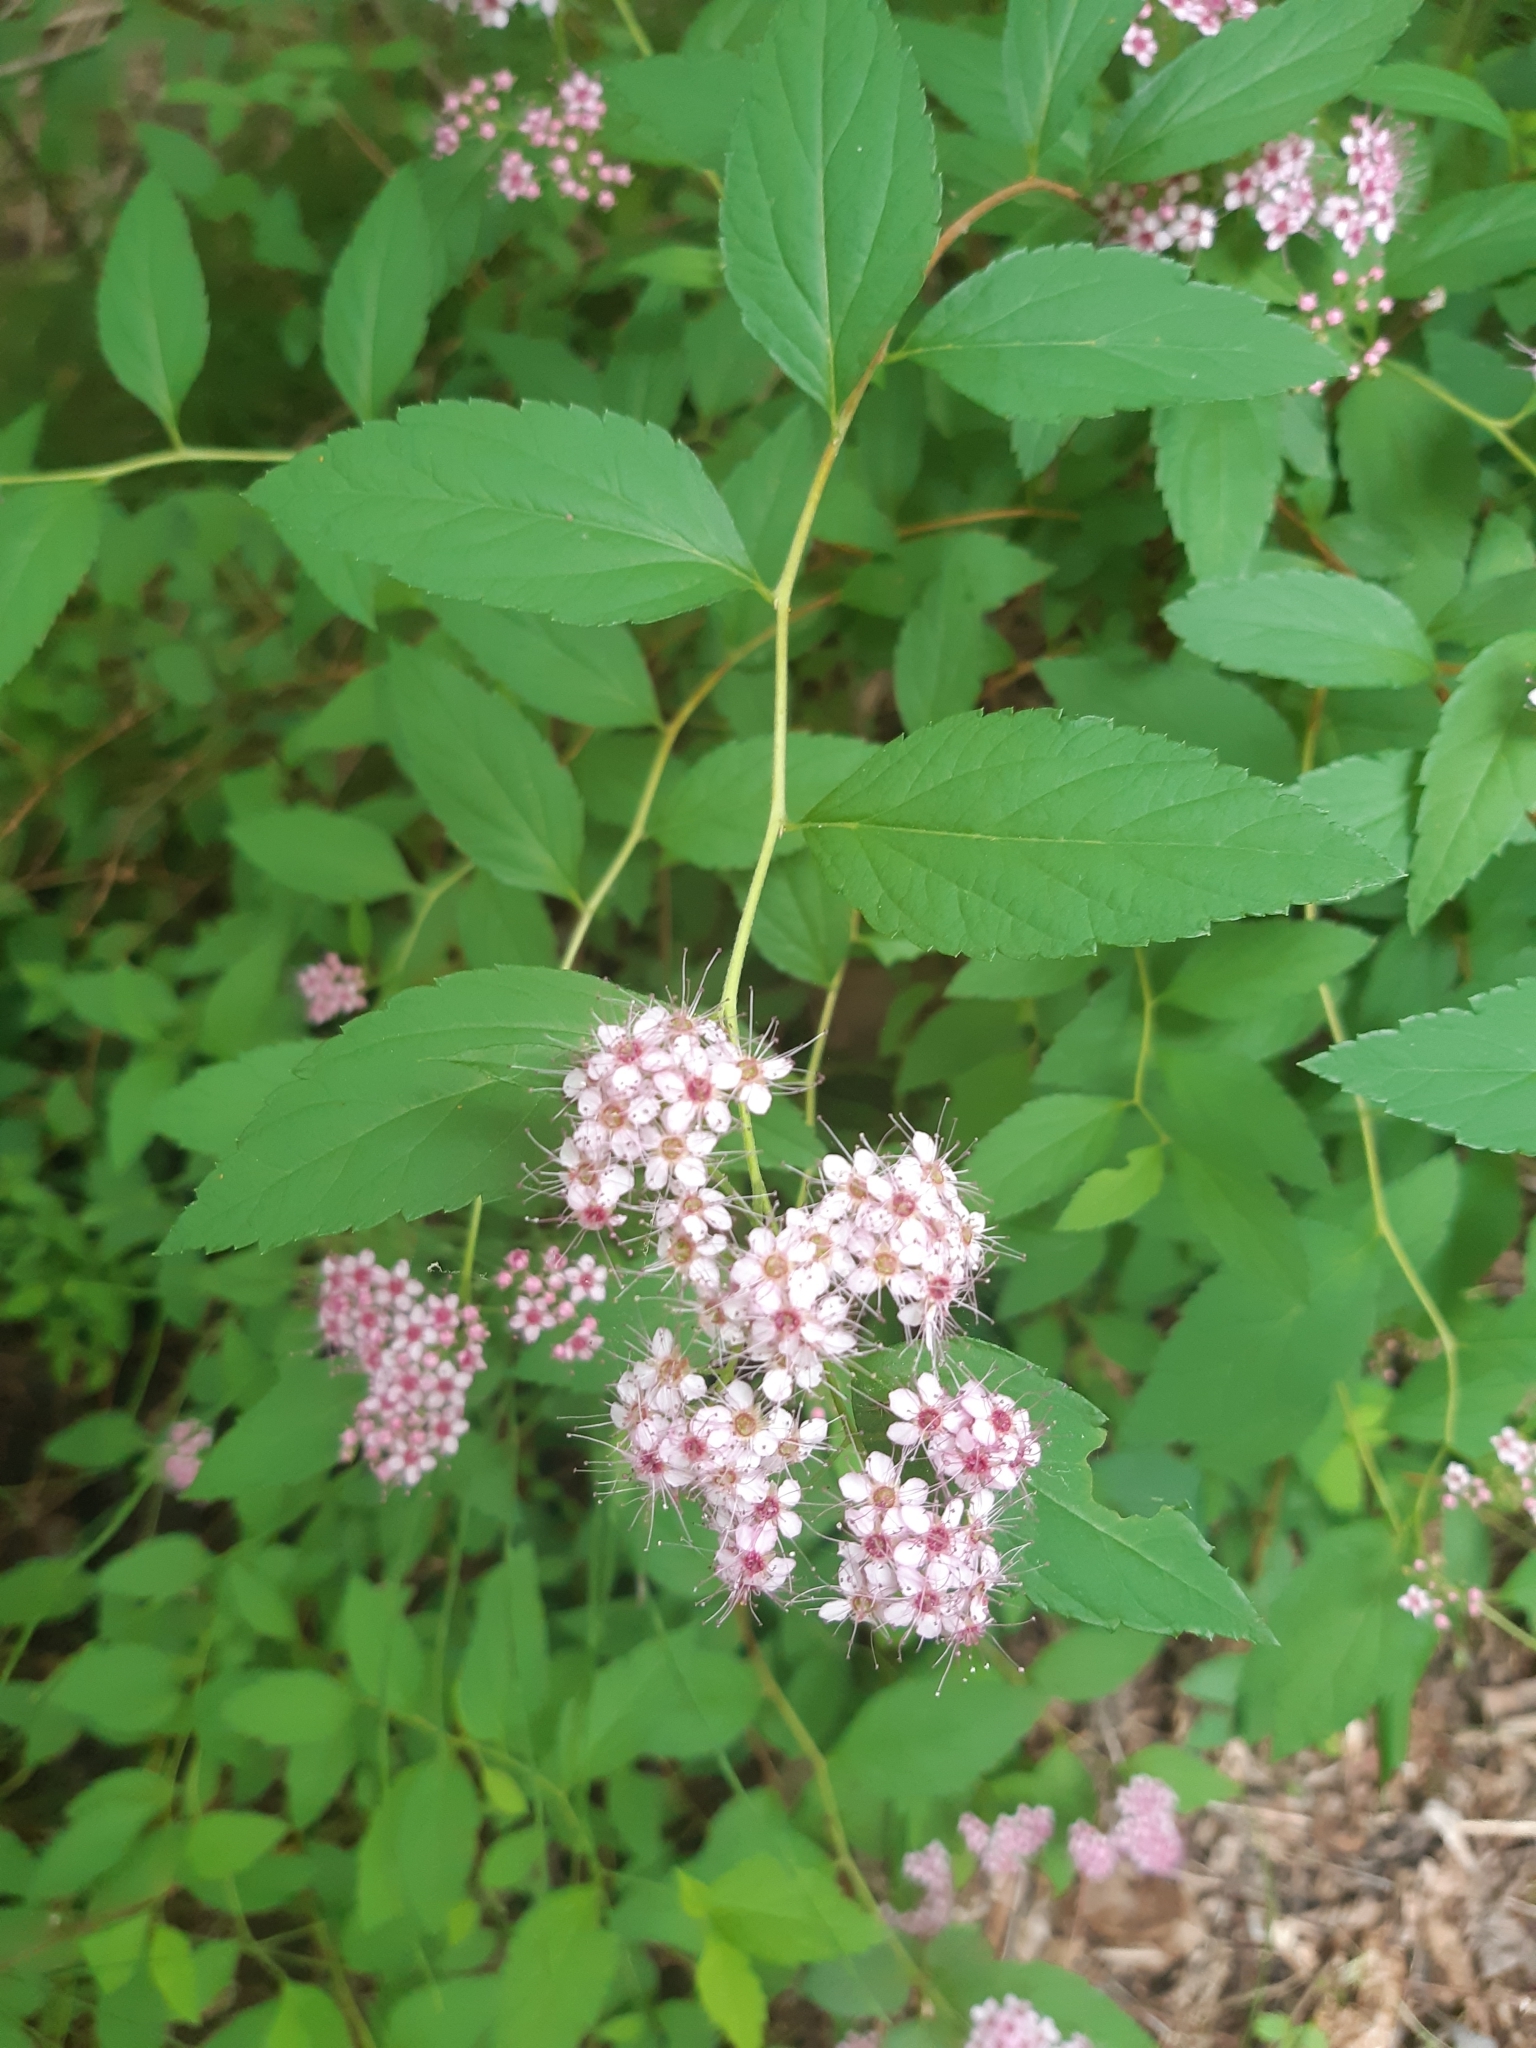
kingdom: Plantae
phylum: Tracheophyta
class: Magnoliopsida
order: Rosales
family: Rosaceae
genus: Spiraea
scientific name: Spiraea japonica
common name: Japanese spiraea
